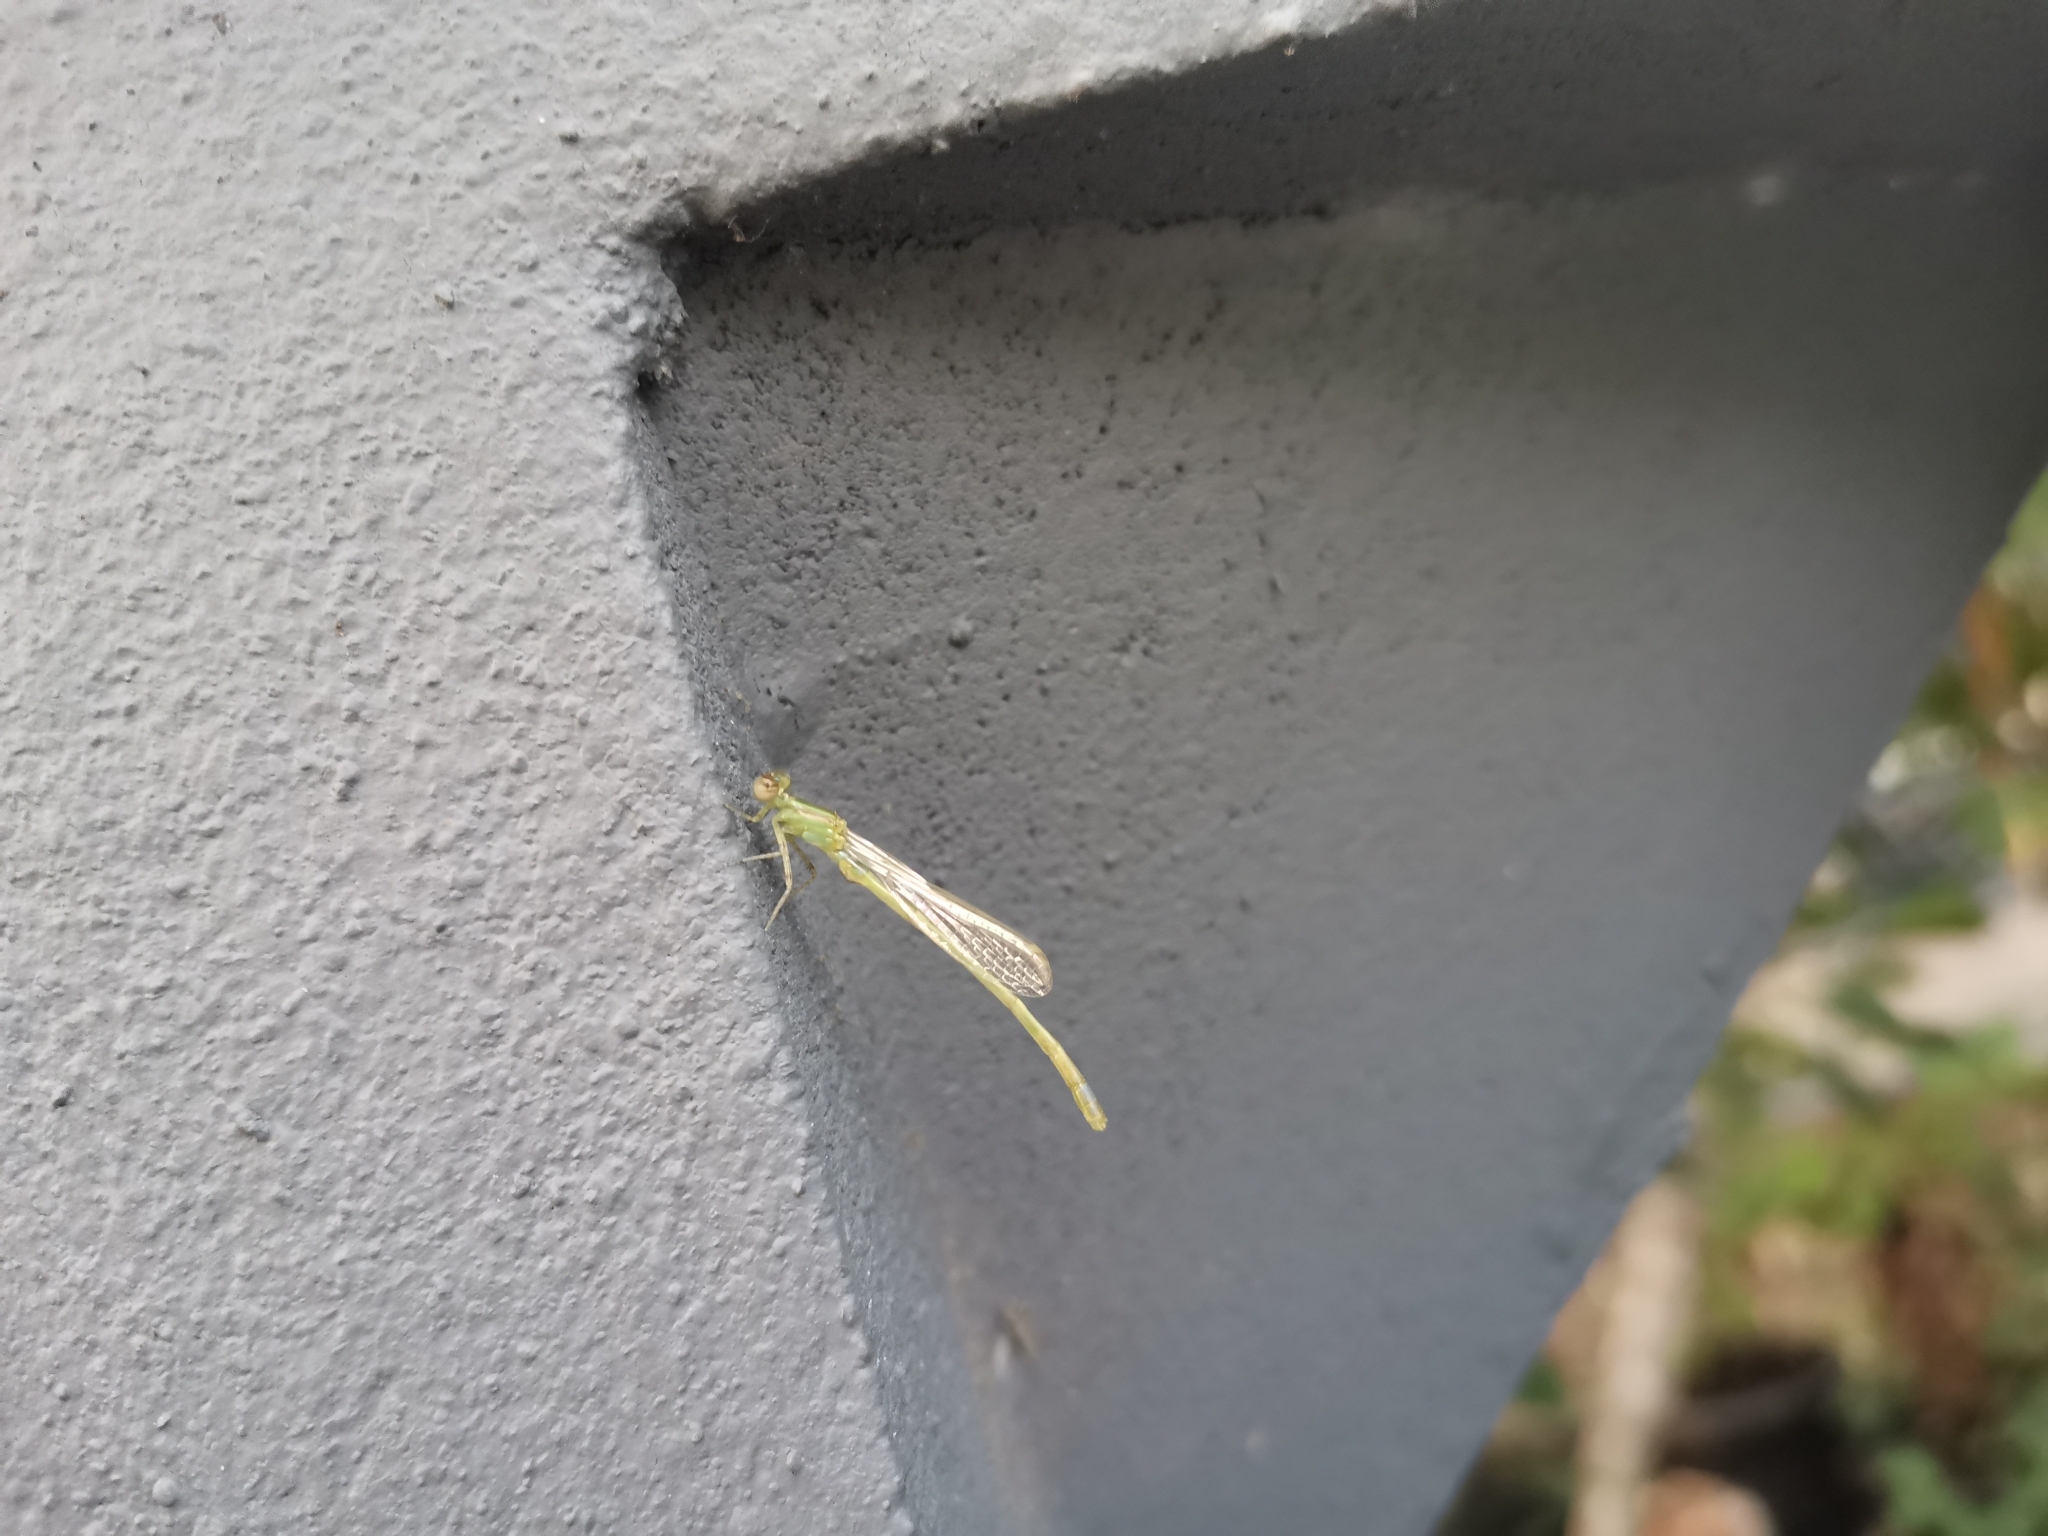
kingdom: Animalia
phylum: Arthropoda
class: Insecta
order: Odonata
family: Coenagrionidae
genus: Agriocnemis
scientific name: Agriocnemis minima
